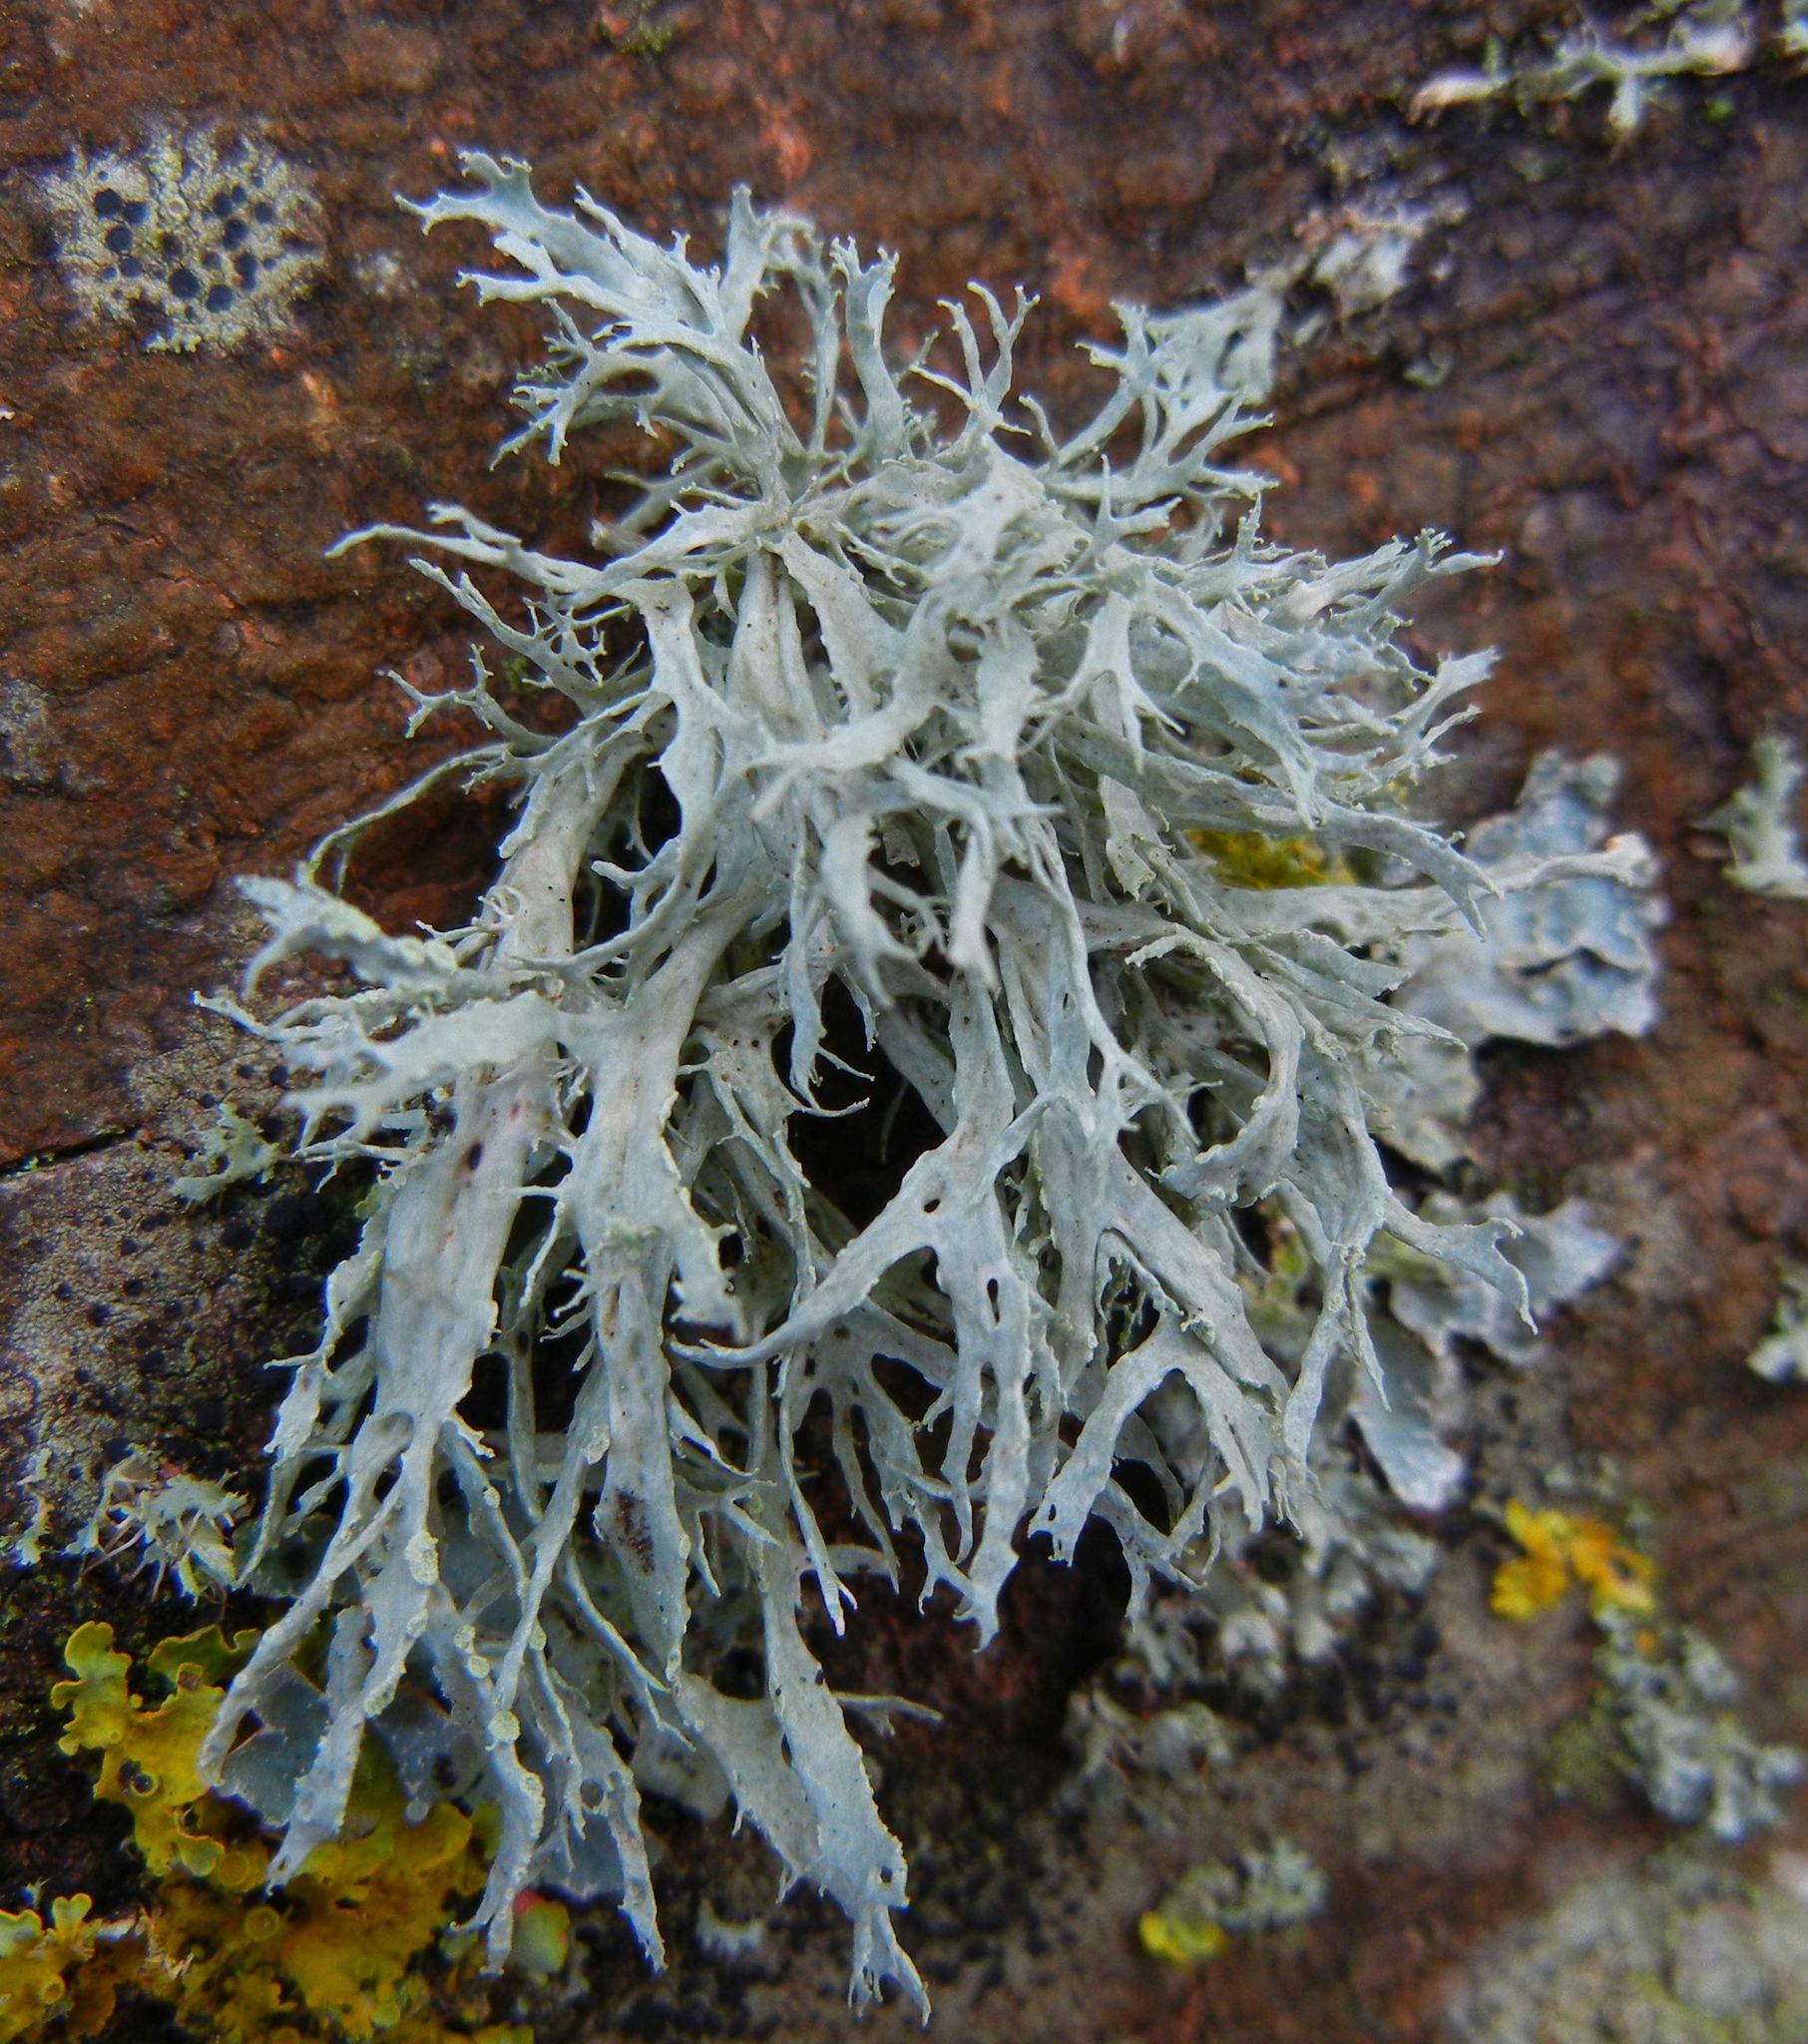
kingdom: Fungi
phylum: Ascomycota
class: Lecanoromycetes
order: Lecanorales
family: Ramalinaceae
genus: Ramalina
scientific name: Ramalina farinacea
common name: Farinose cartilage lichen
